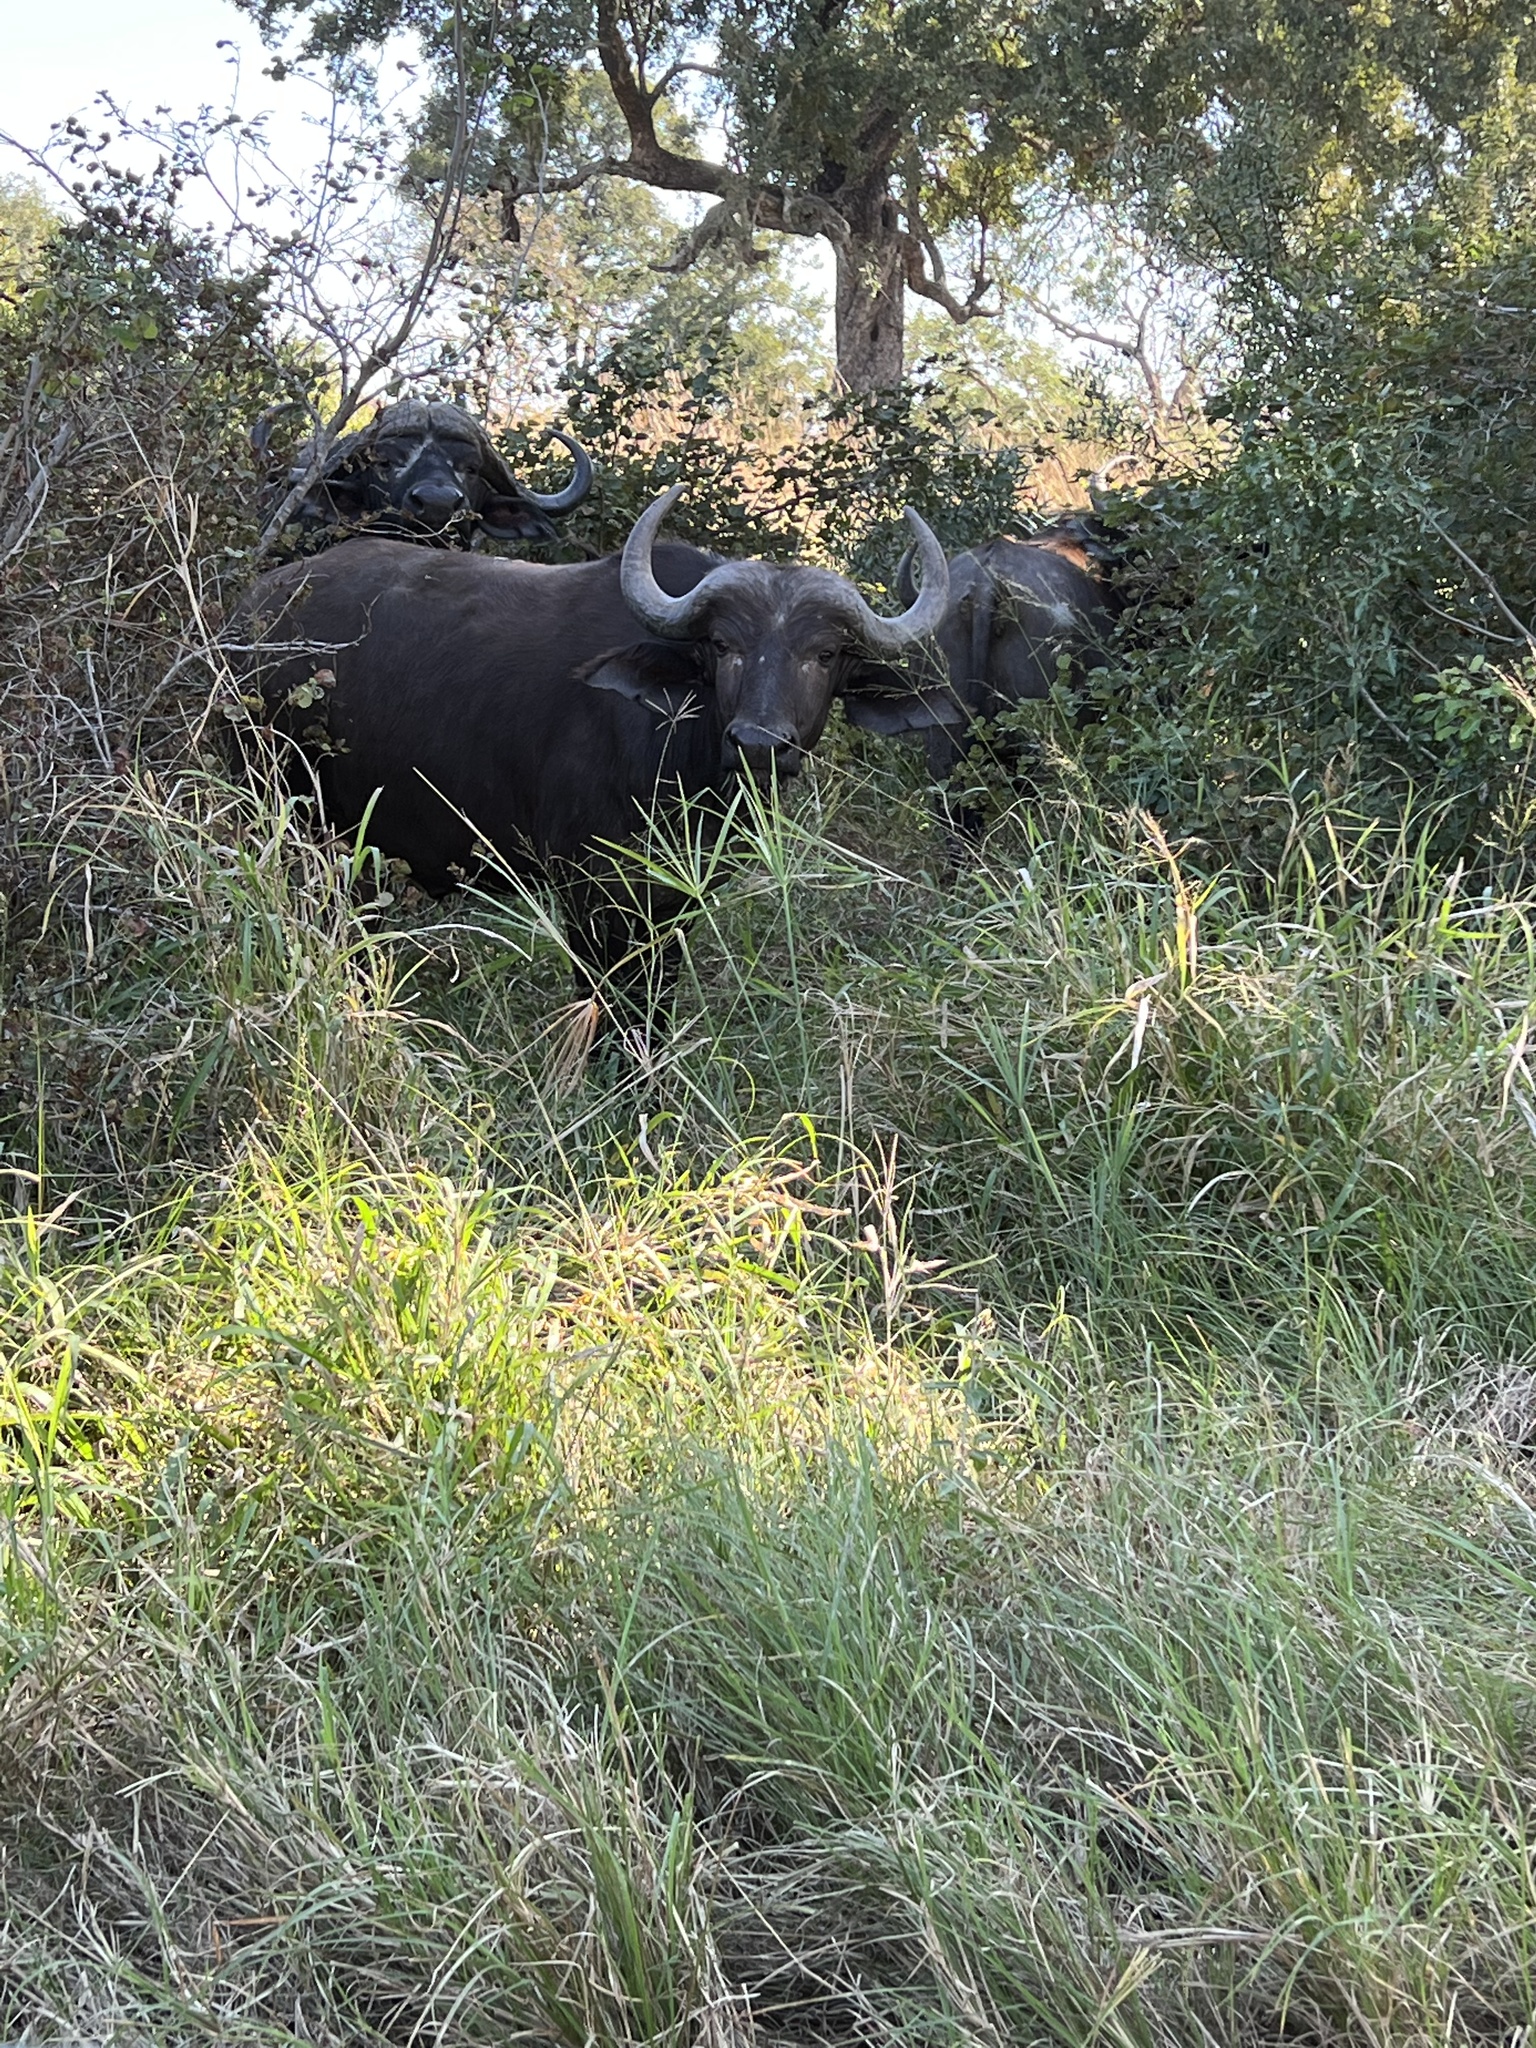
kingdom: Animalia
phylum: Chordata
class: Mammalia
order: Artiodactyla
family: Bovidae
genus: Syncerus
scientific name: Syncerus caffer
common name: African buffalo
